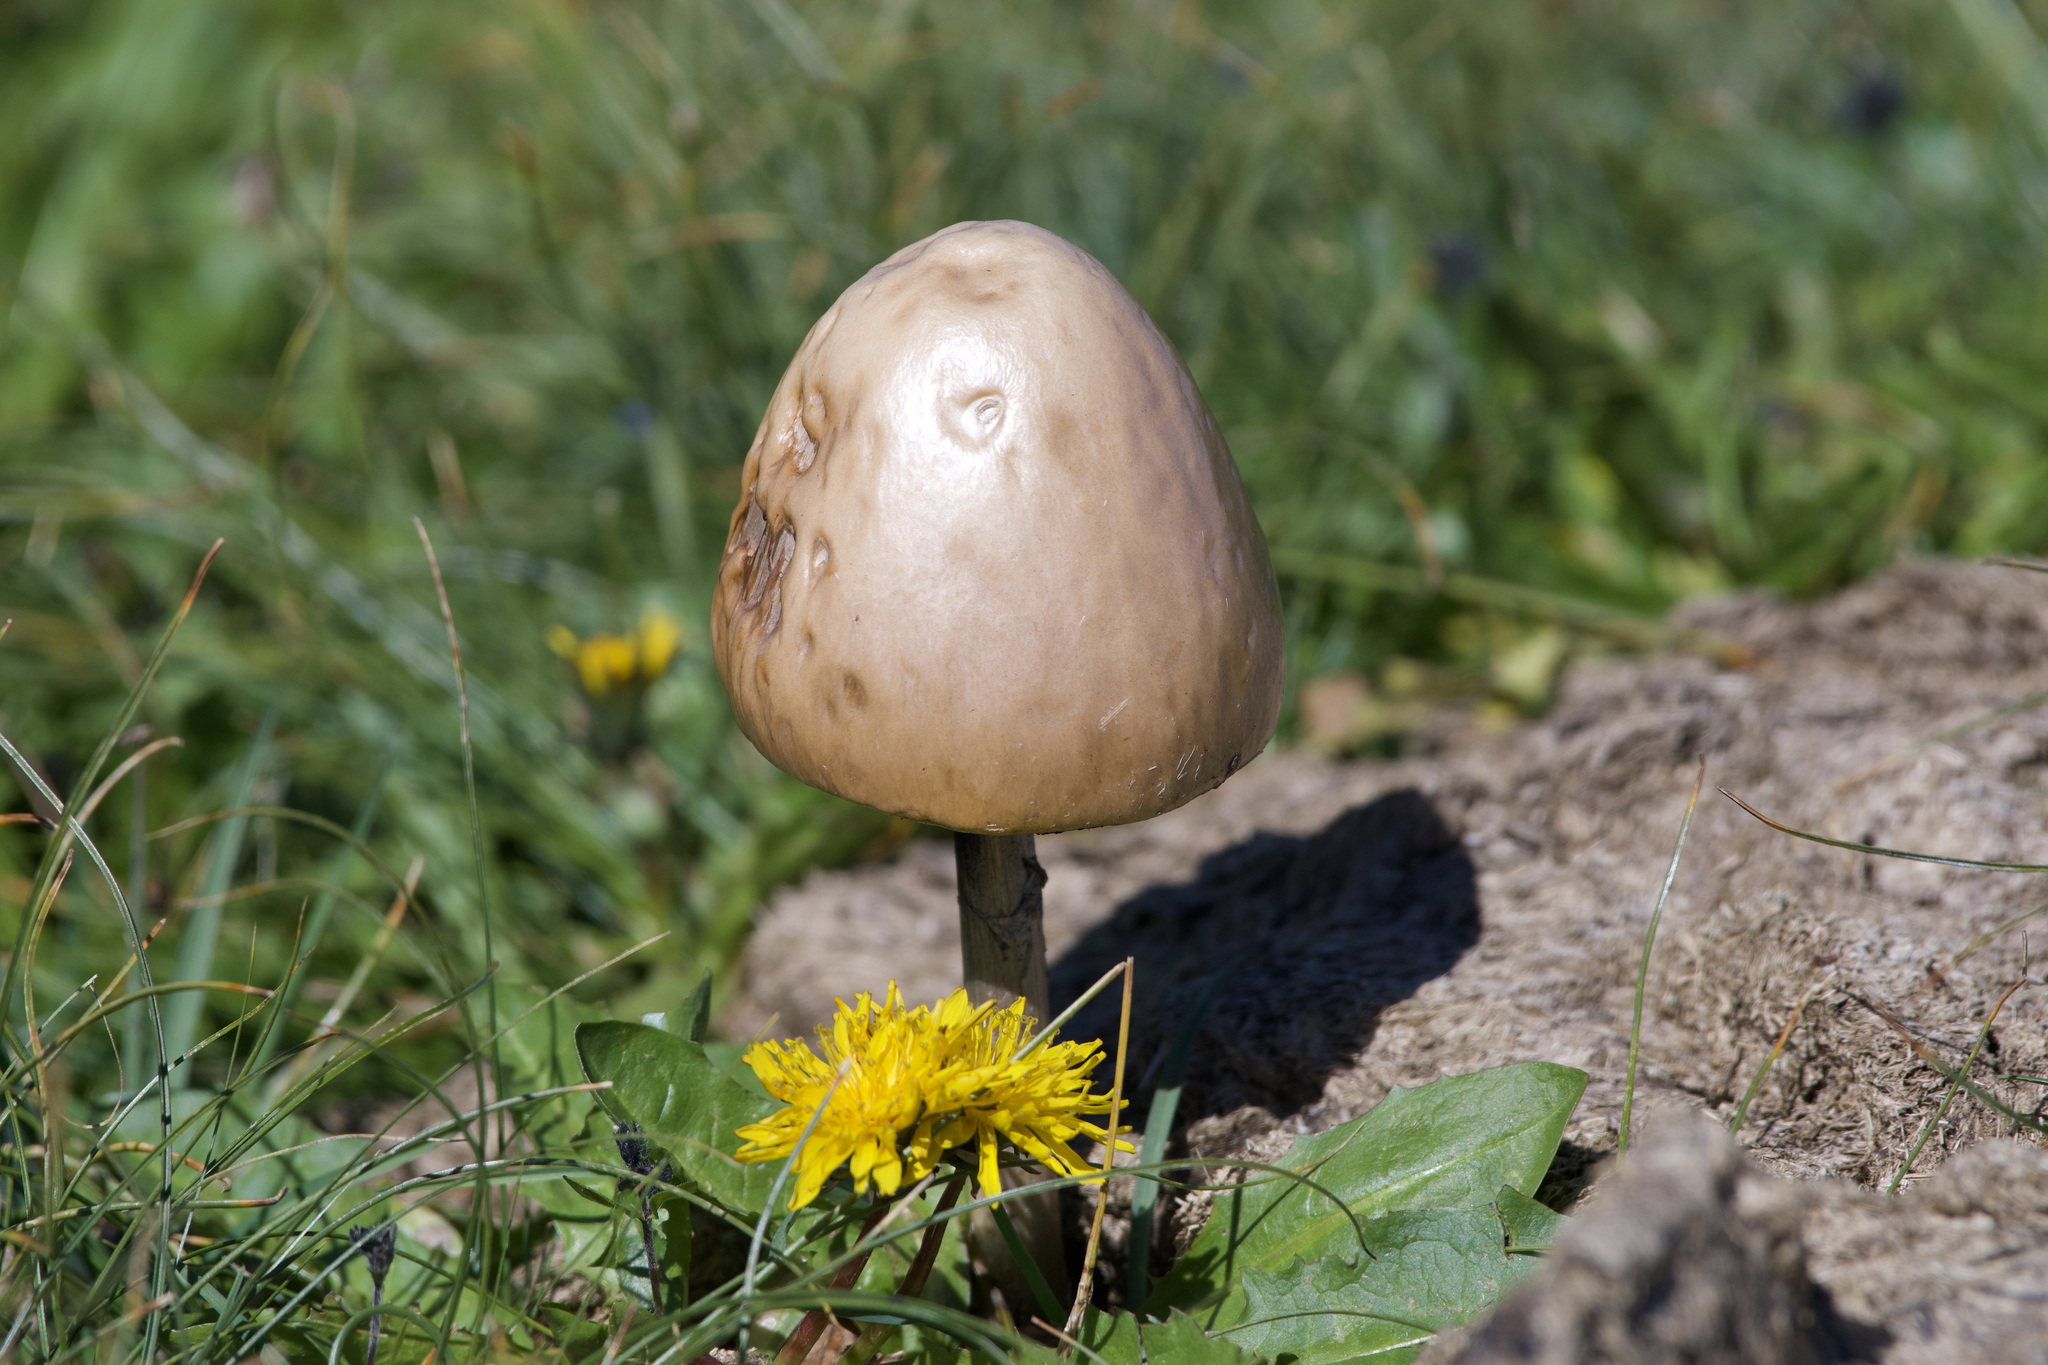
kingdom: Fungi
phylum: Basidiomycota
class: Agaricomycetes
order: Agaricales
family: Bolbitiaceae
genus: Panaeolus
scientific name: Panaeolus semiovatus
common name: Shiny mottlegill
